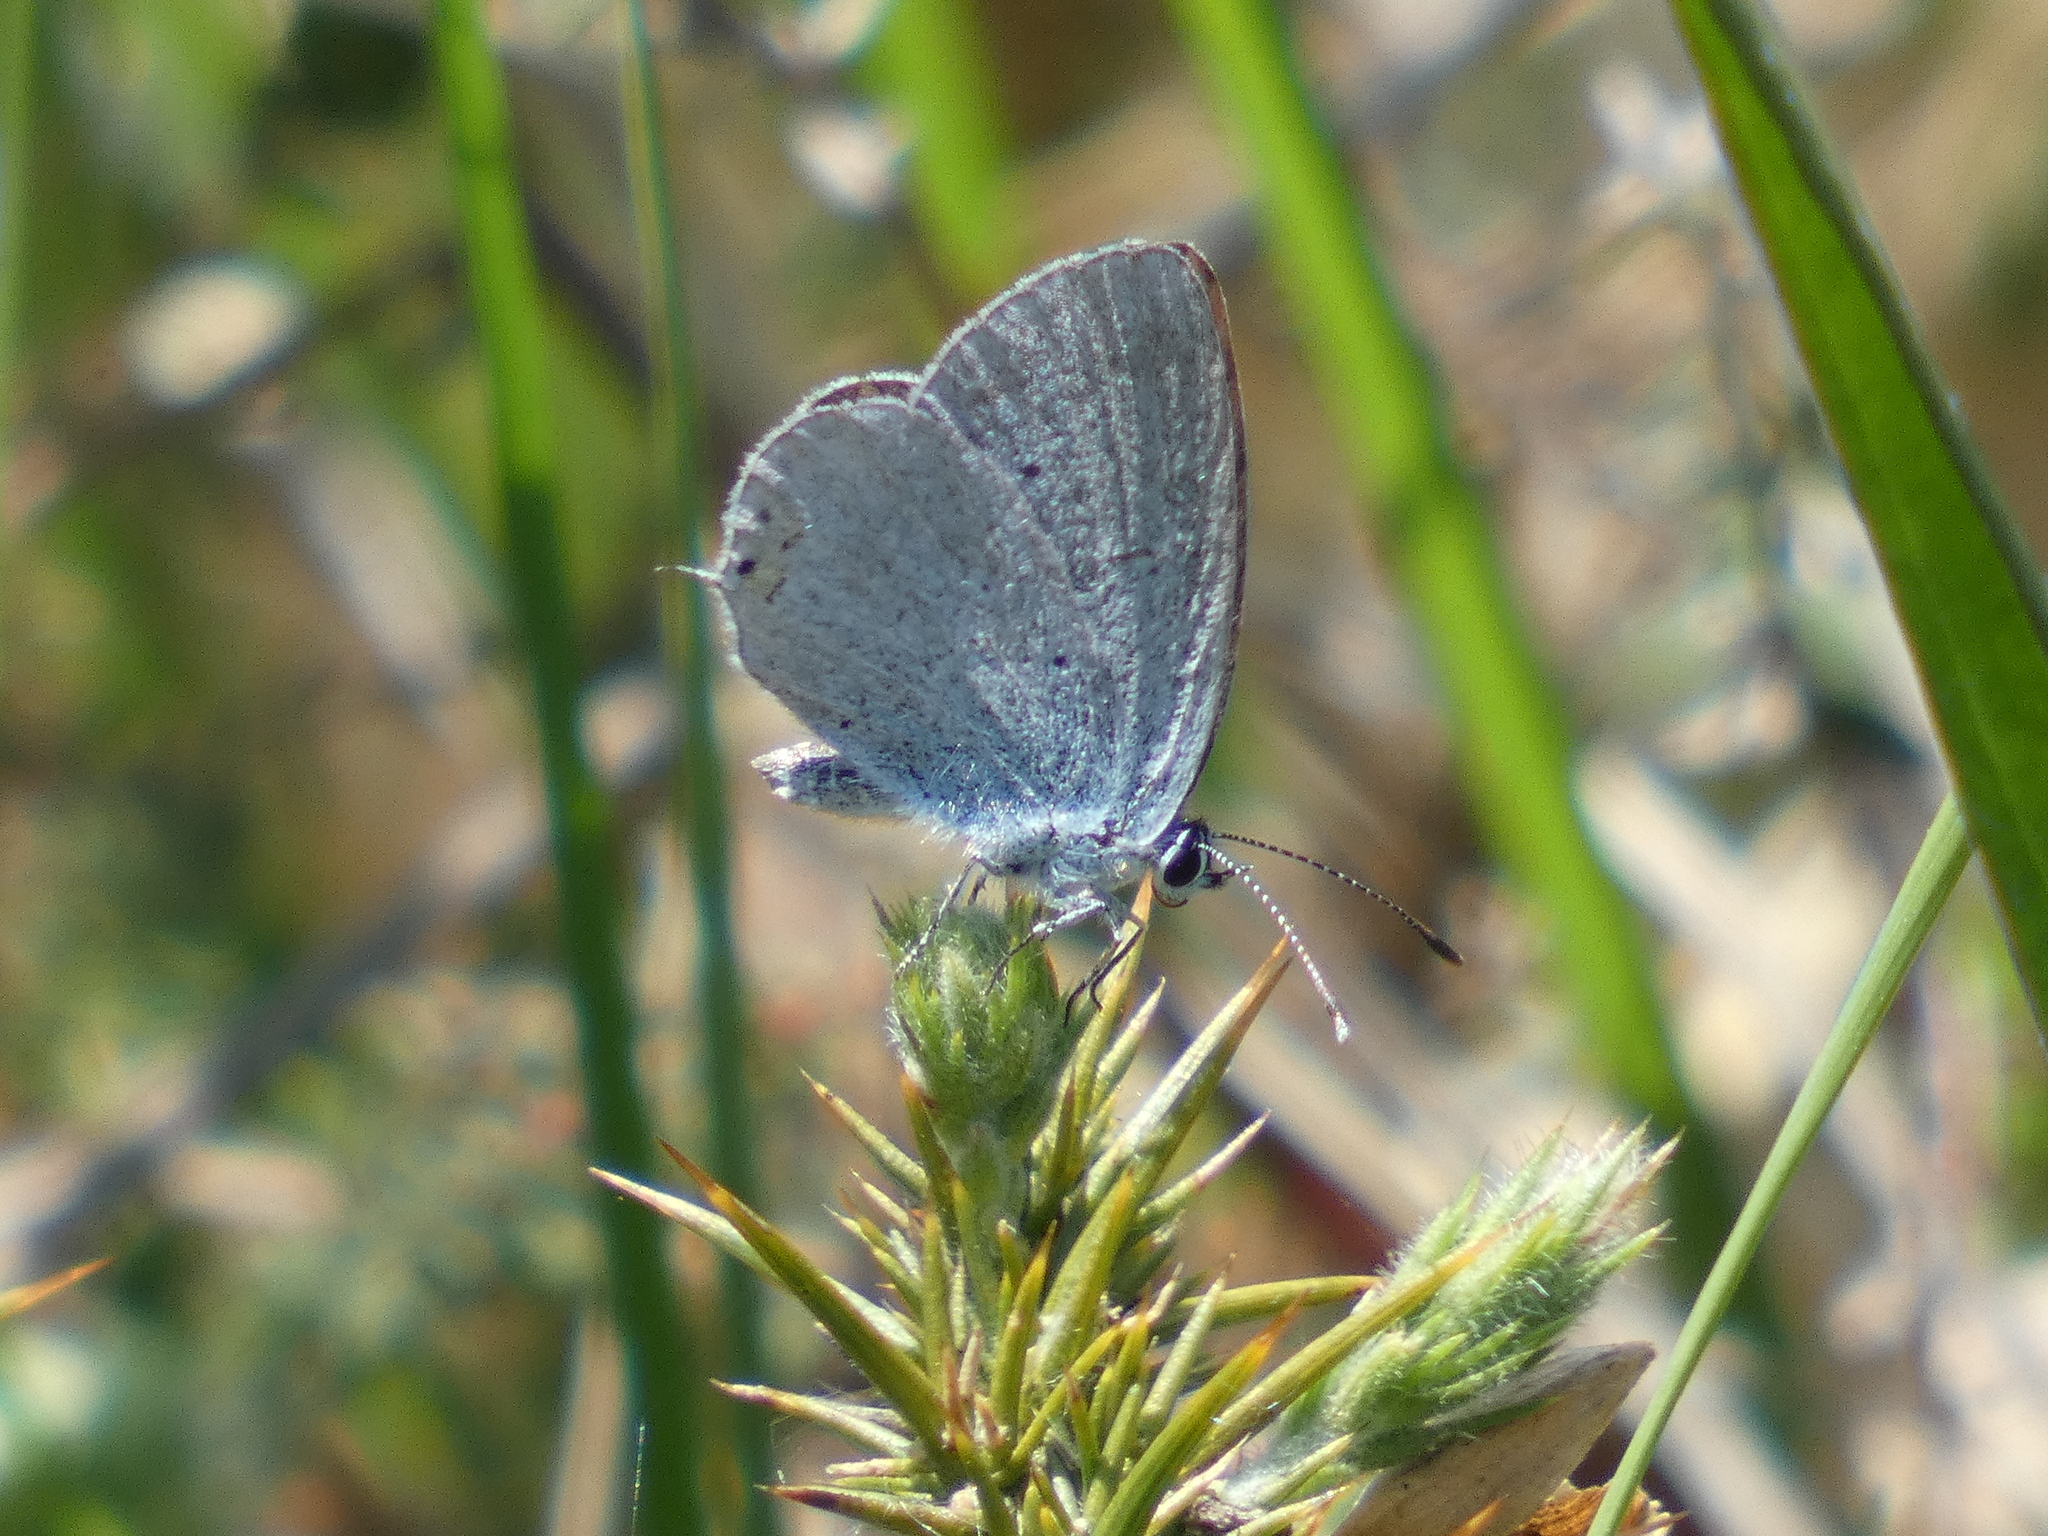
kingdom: Animalia
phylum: Arthropoda
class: Insecta
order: Lepidoptera
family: Lycaenidae
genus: Elkalyce
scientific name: Elkalyce argiades
